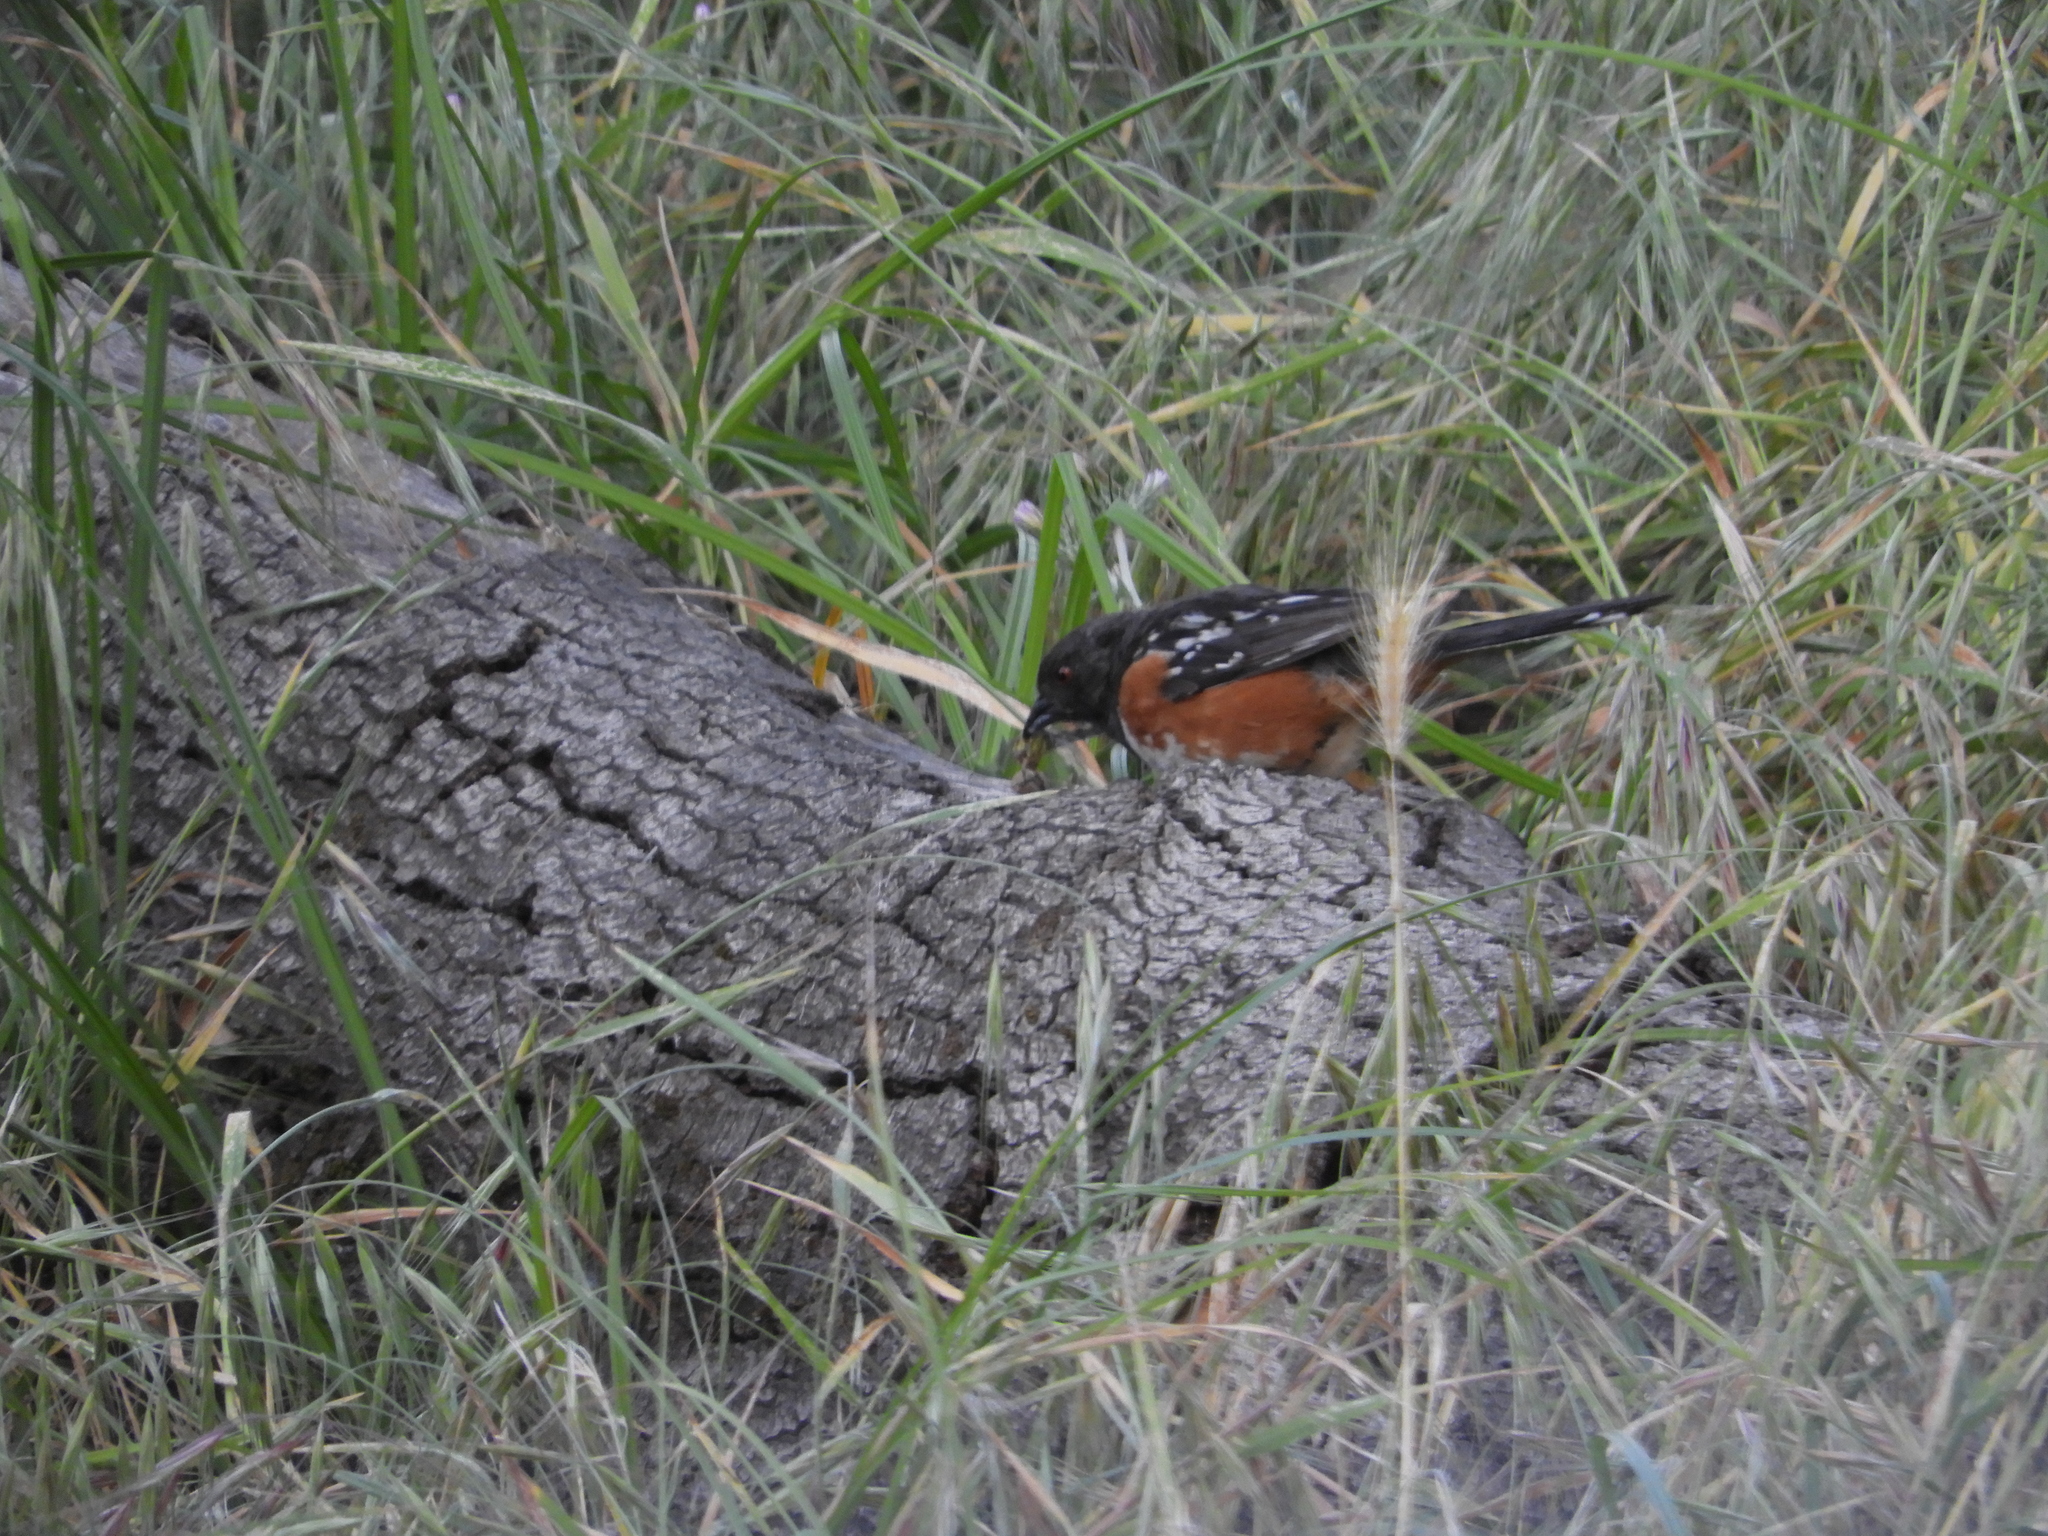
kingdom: Animalia
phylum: Chordata
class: Aves
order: Passeriformes
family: Passerellidae
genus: Pipilo
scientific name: Pipilo maculatus
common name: Spotted towhee
